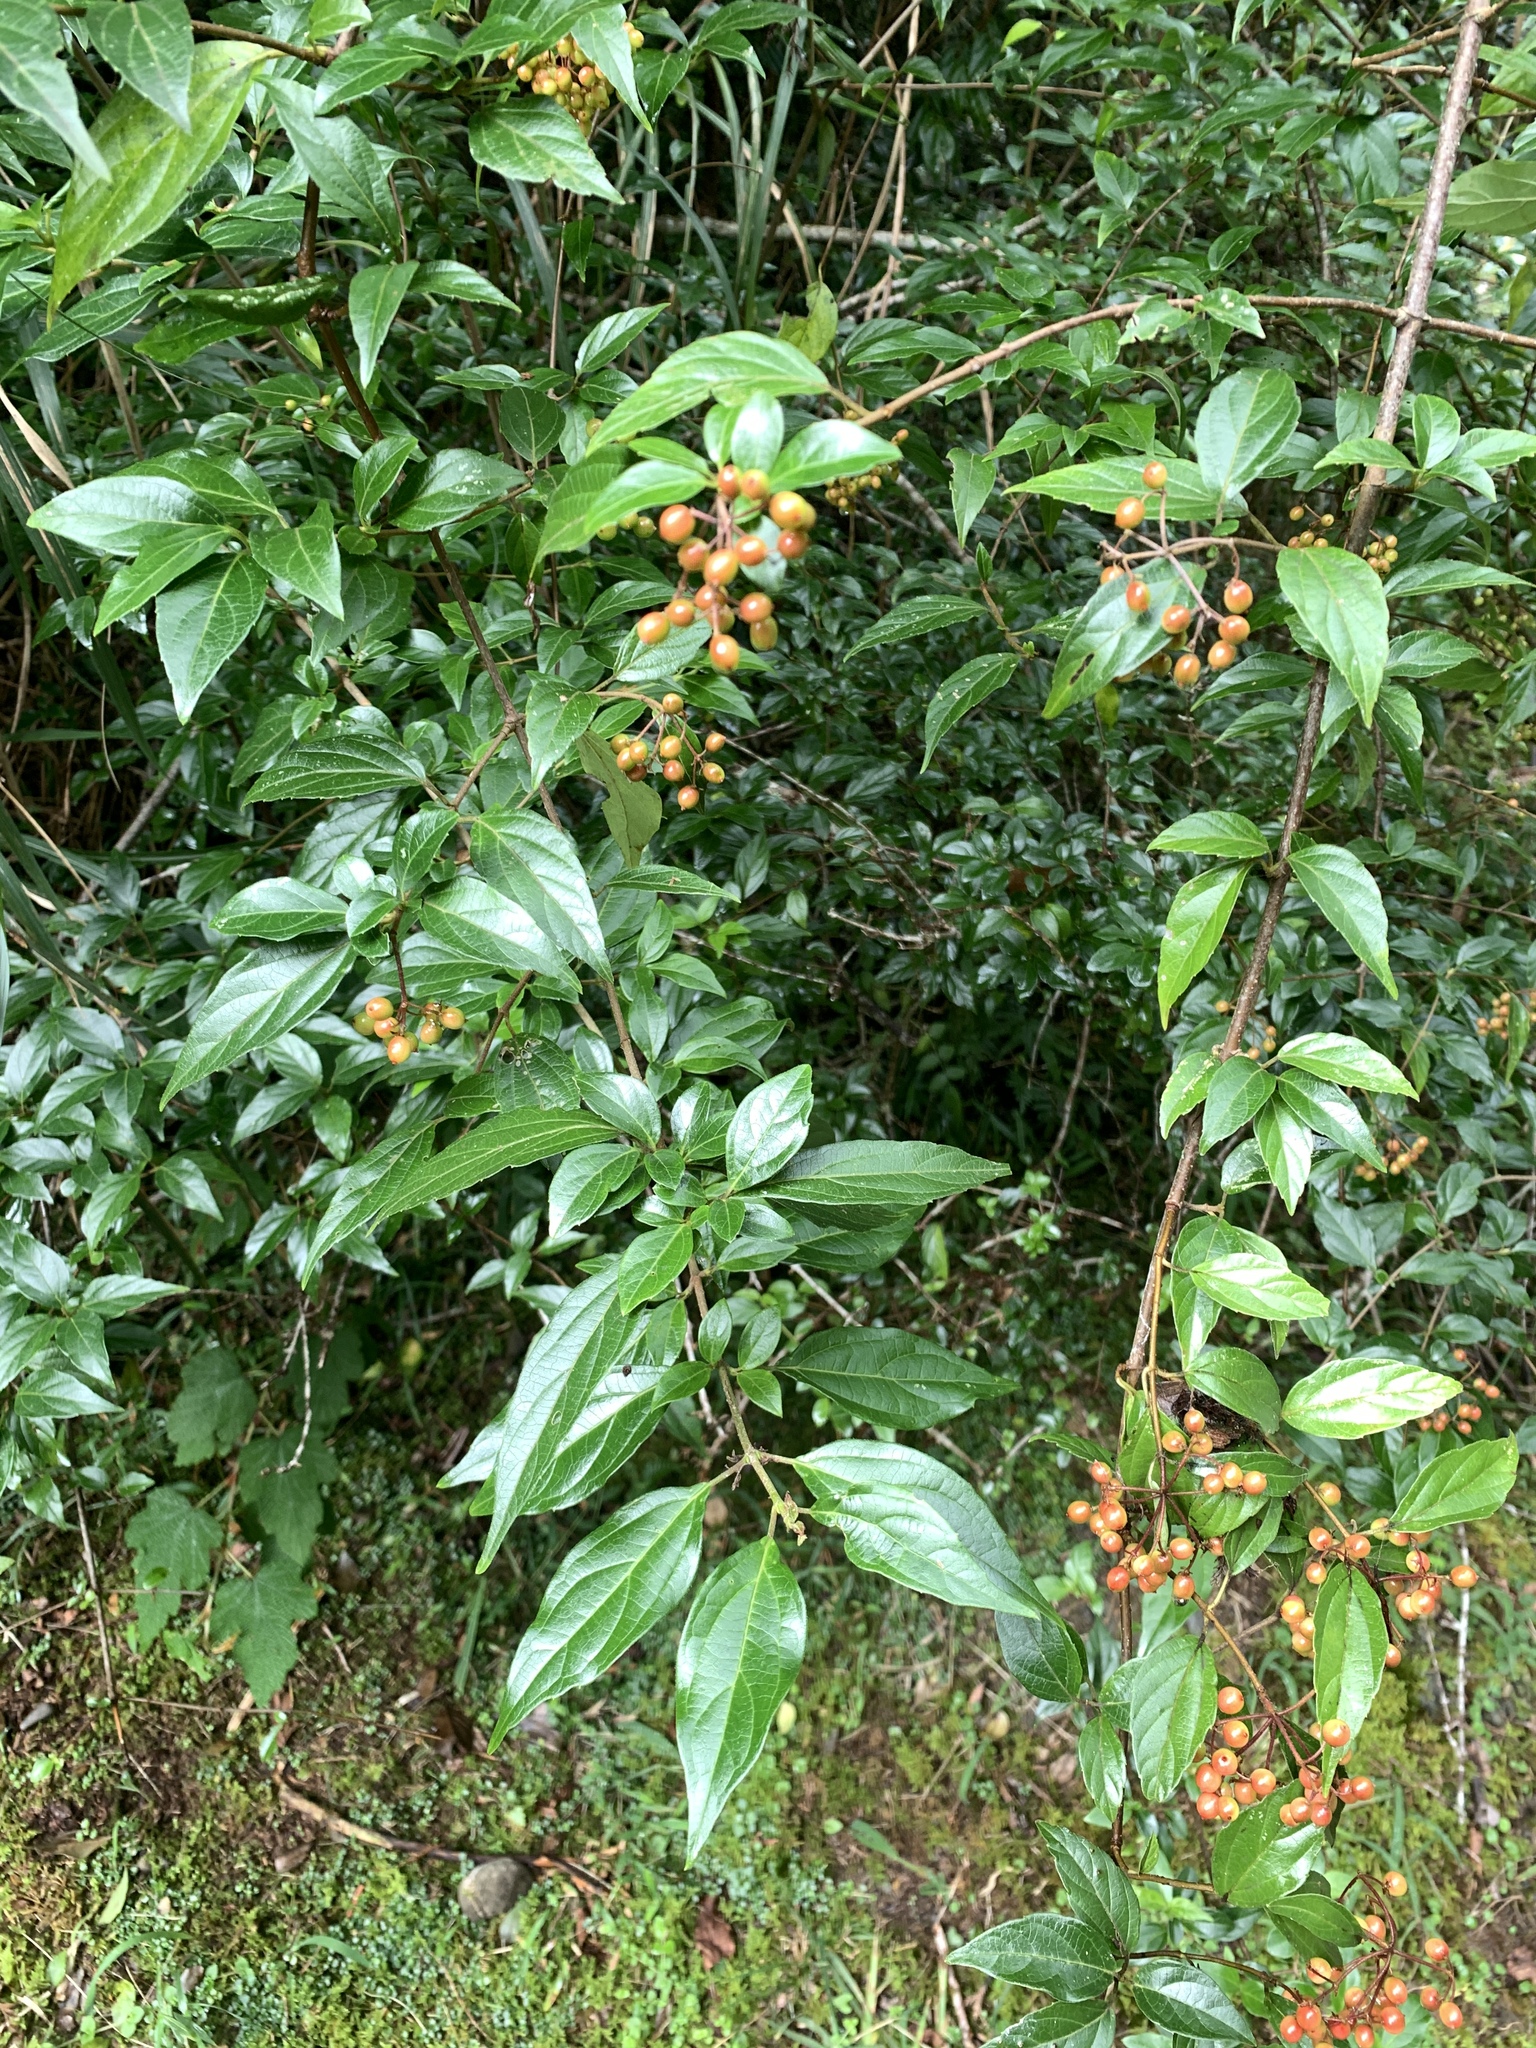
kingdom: Plantae
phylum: Tracheophyta
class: Magnoliopsida
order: Dipsacales
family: Viburnaceae
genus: Viburnum
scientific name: Viburnum foetidum
